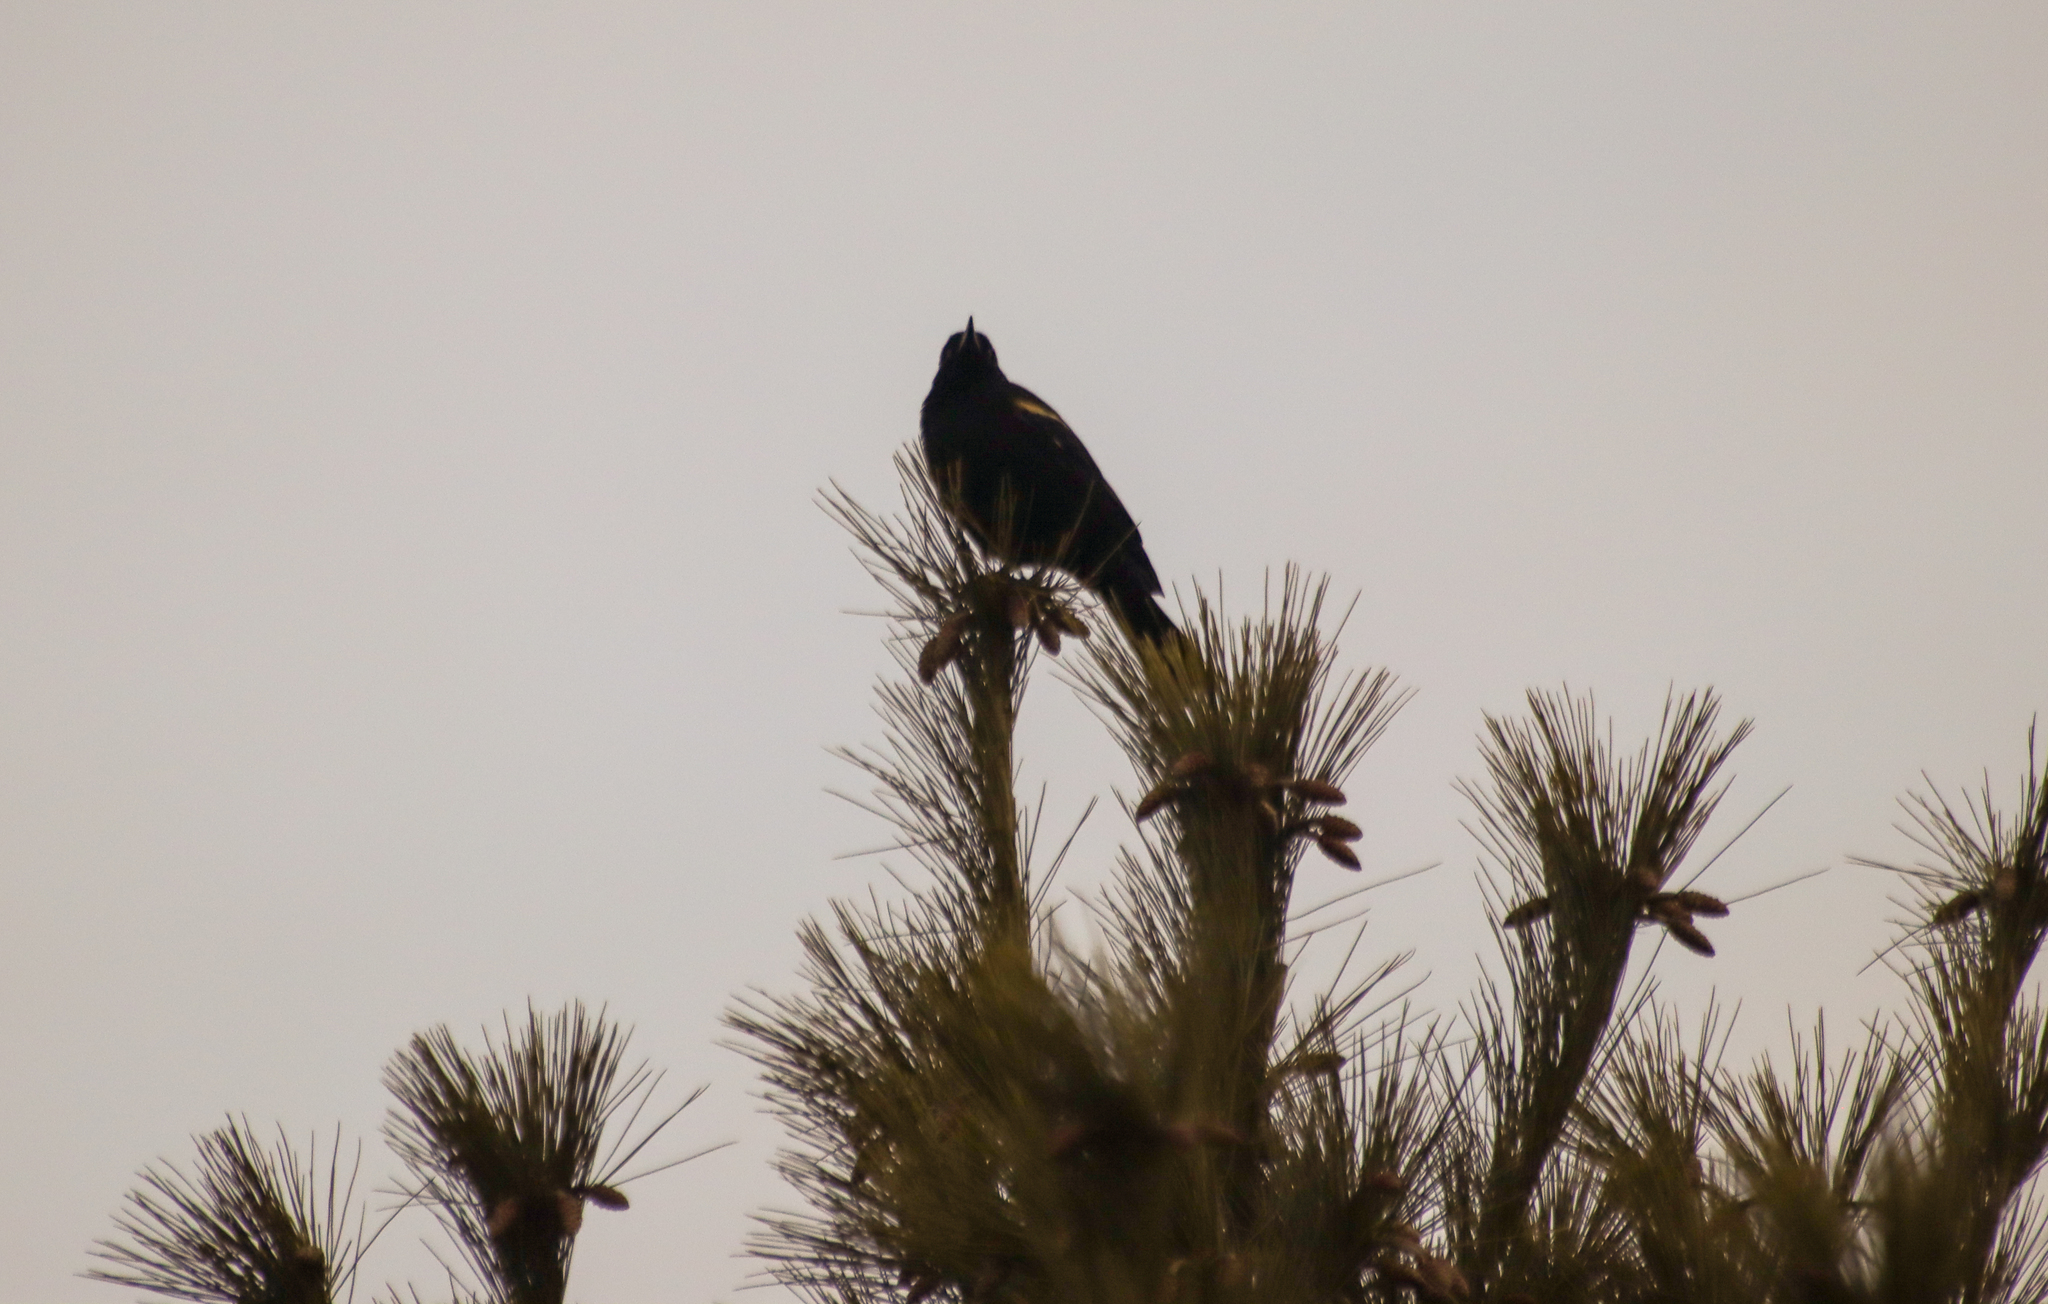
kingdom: Animalia
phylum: Chordata
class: Aves
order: Passeriformes
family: Icteridae
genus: Agelaius
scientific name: Agelaius phoeniceus
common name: Red-winged blackbird
